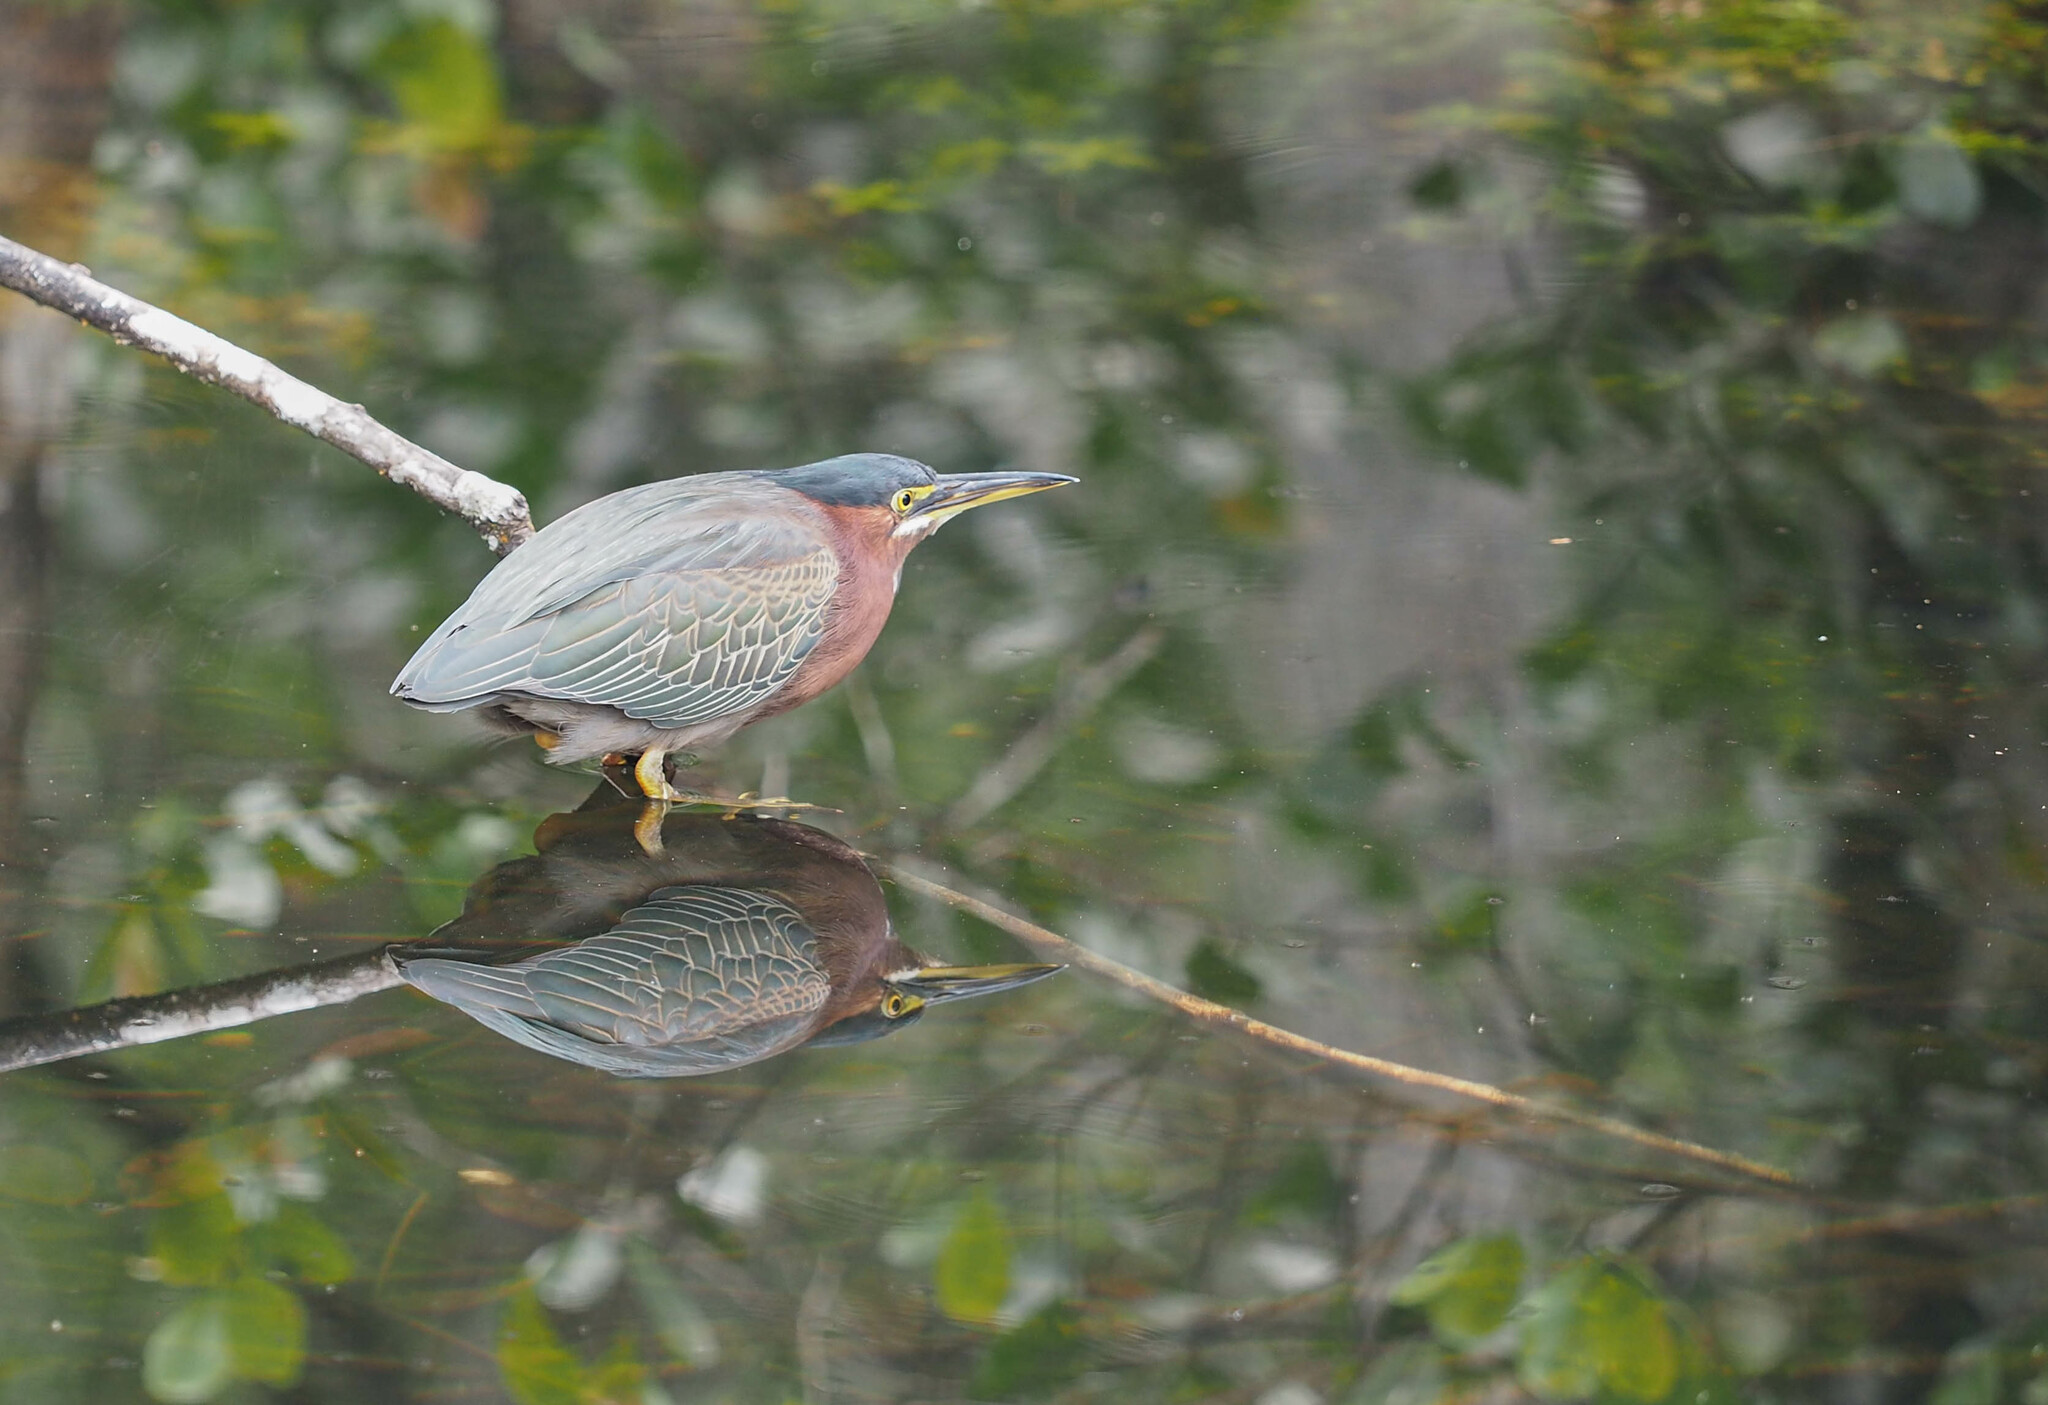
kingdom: Animalia
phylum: Chordata
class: Aves
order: Pelecaniformes
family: Ardeidae
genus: Butorides
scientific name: Butorides virescens
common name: Green heron
